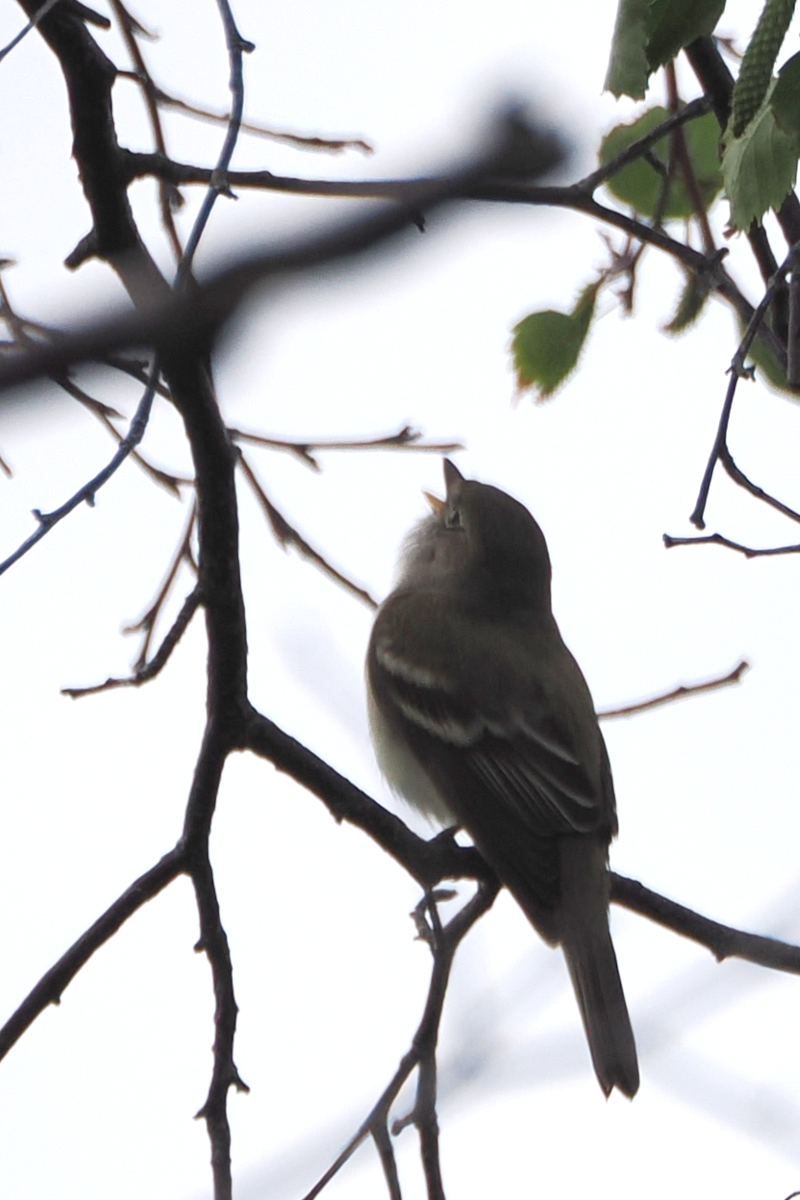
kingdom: Animalia
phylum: Chordata
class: Aves
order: Passeriformes
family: Tyrannidae
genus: Empidonax
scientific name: Empidonax alnorum
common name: Alder flycatcher
